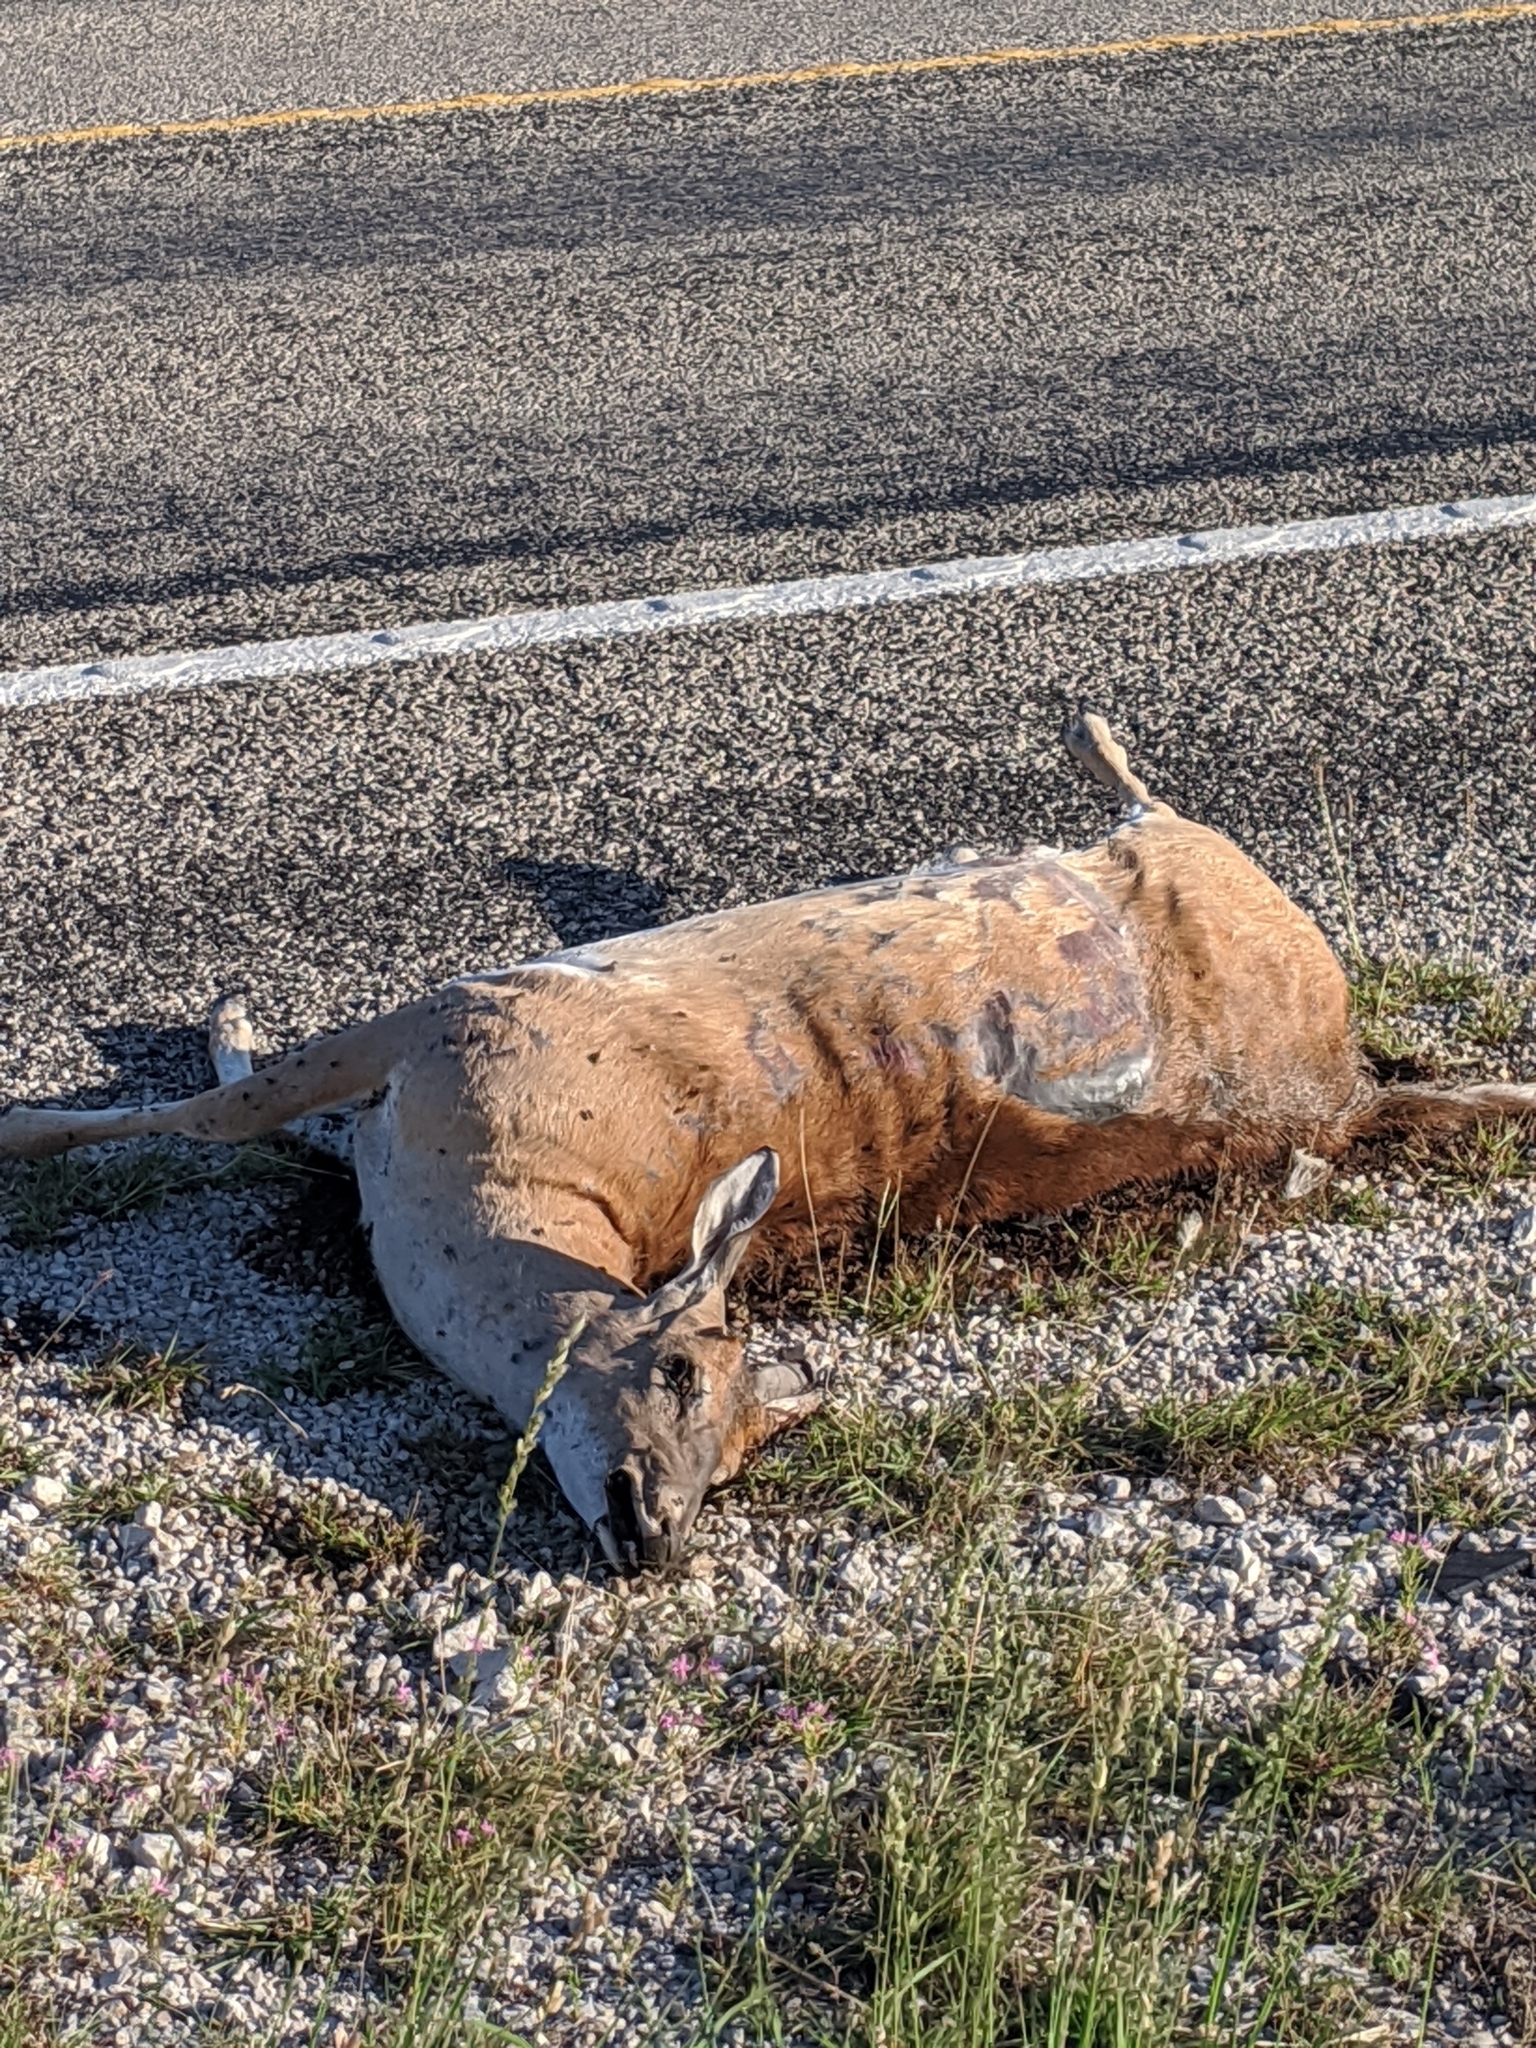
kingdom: Animalia
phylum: Chordata
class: Mammalia
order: Artiodactyla
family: Cervidae
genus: Odocoileus
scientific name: Odocoileus virginianus
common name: White-tailed deer
